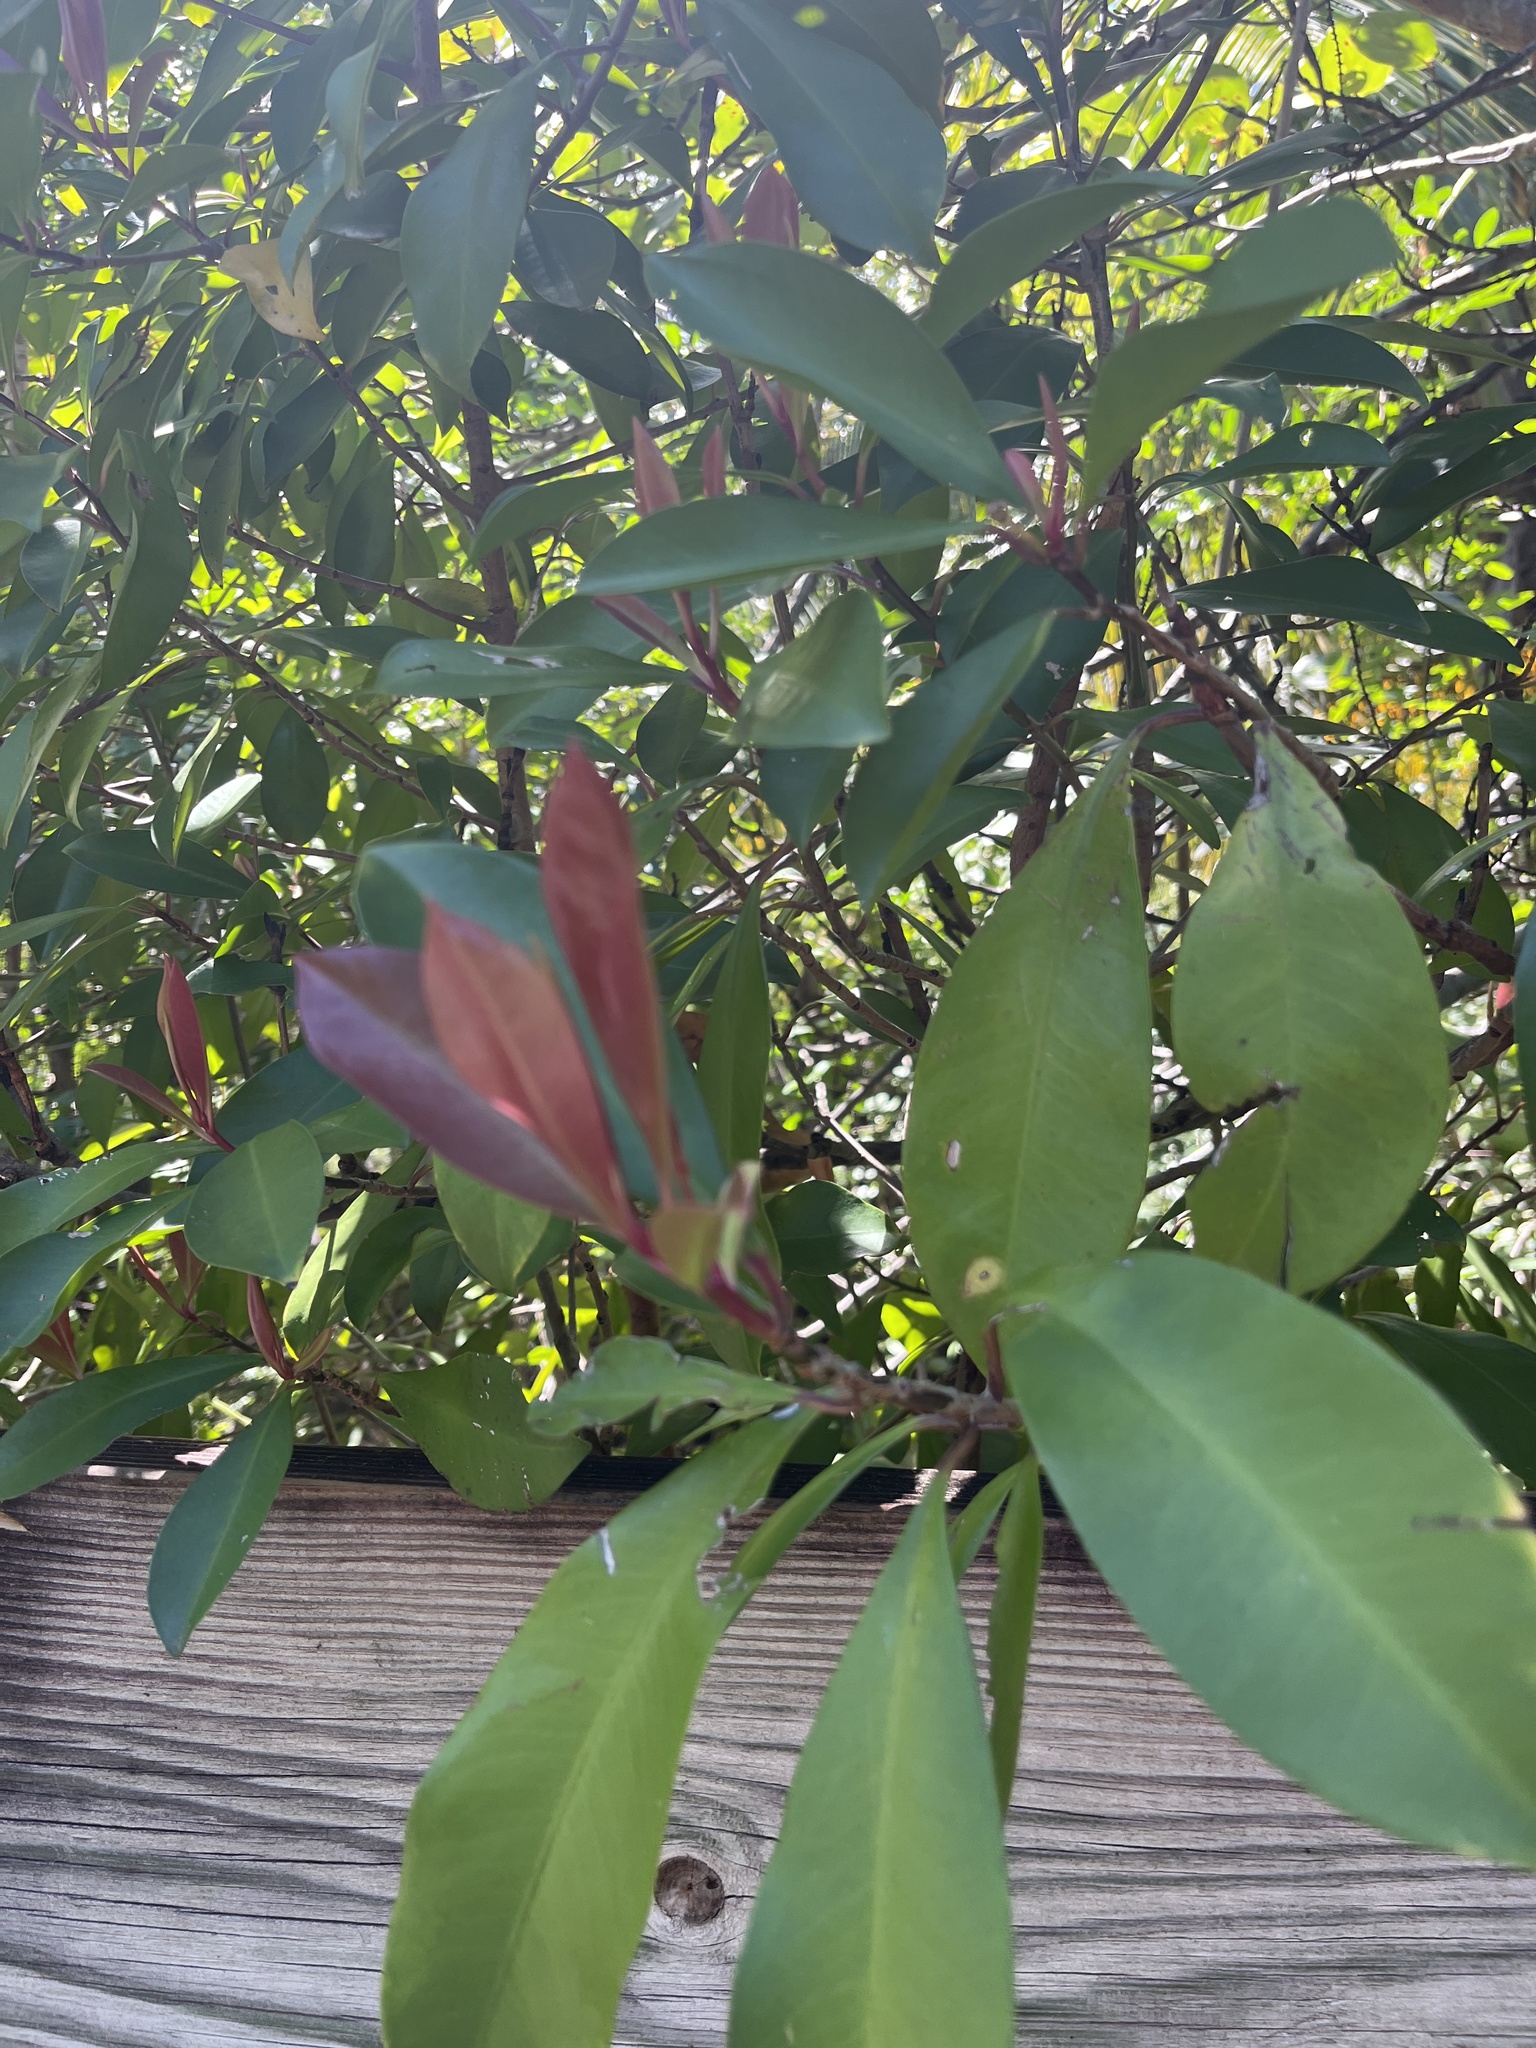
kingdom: Plantae
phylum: Tracheophyta
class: Magnoliopsida
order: Ericales
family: Primulaceae
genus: Ardisia
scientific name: Ardisia elliptica
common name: Shoebutton
